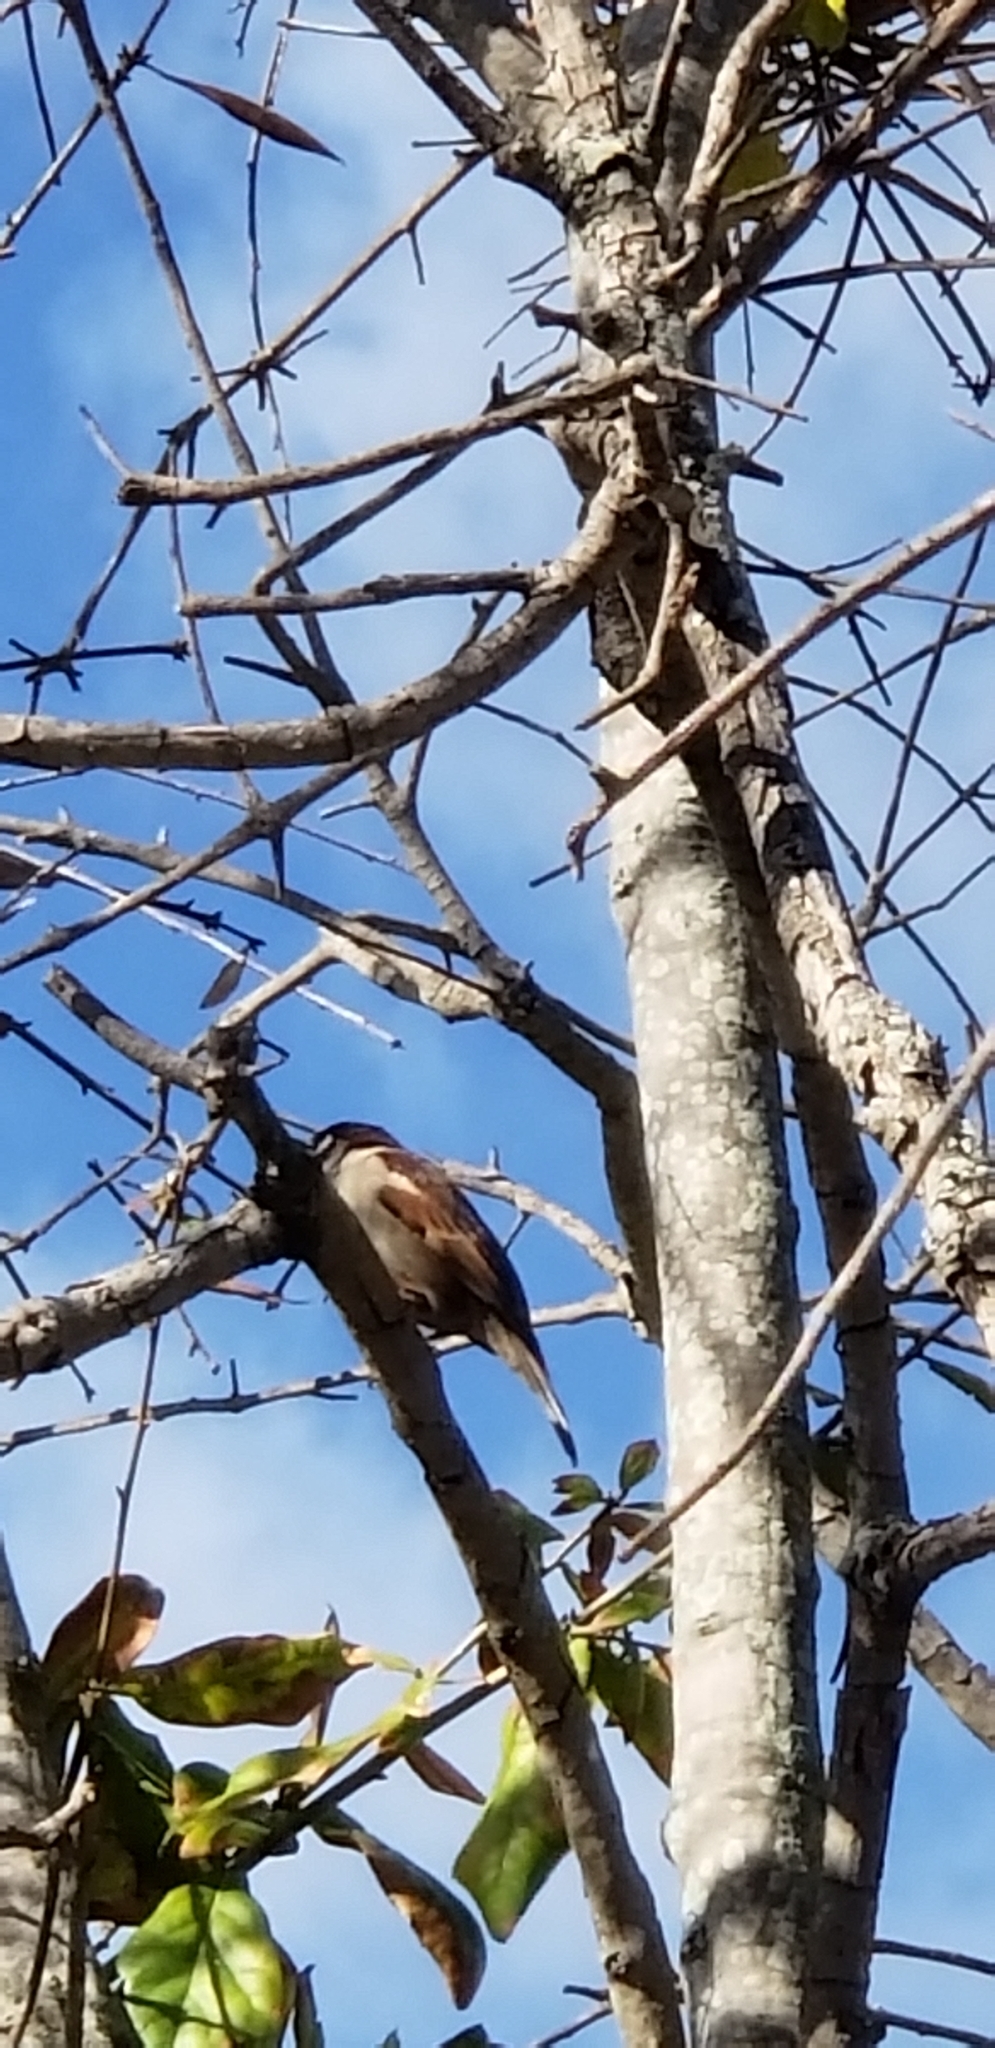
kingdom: Animalia
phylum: Chordata
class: Aves
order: Passeriformes
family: Passeridae
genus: Passer
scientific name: Passer domesticus
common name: House sparrow
